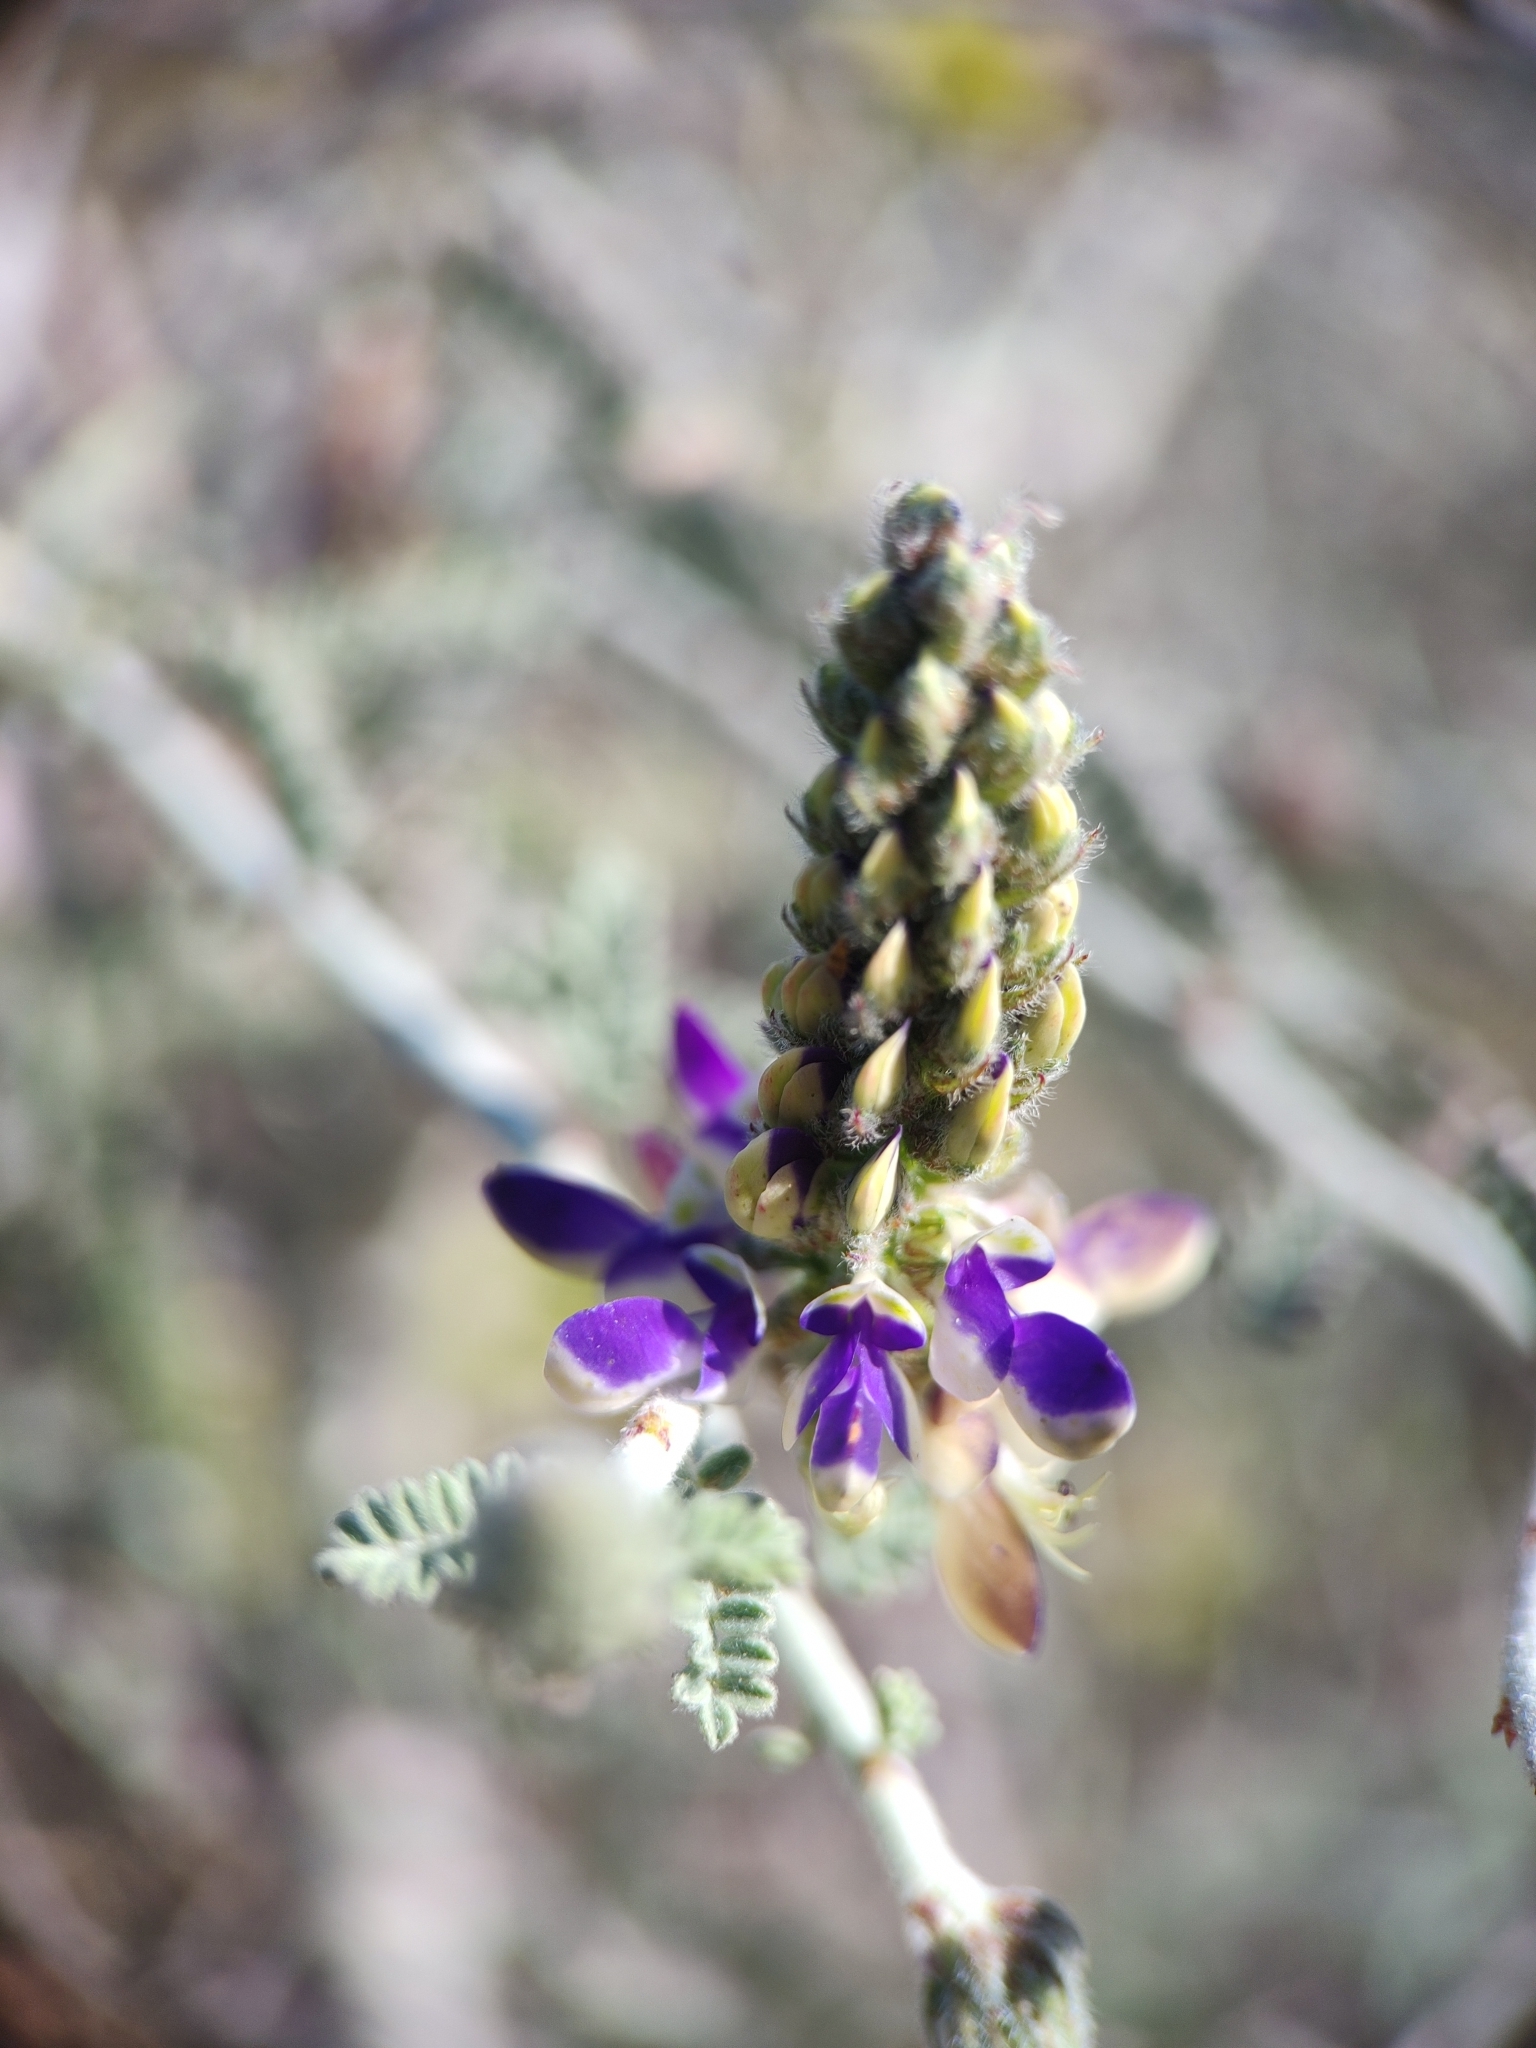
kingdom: Plantae
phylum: Tracheophyta
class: Magnoliopsida
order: Fabales
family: Fabaceae
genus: Marina
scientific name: Marina maritima
